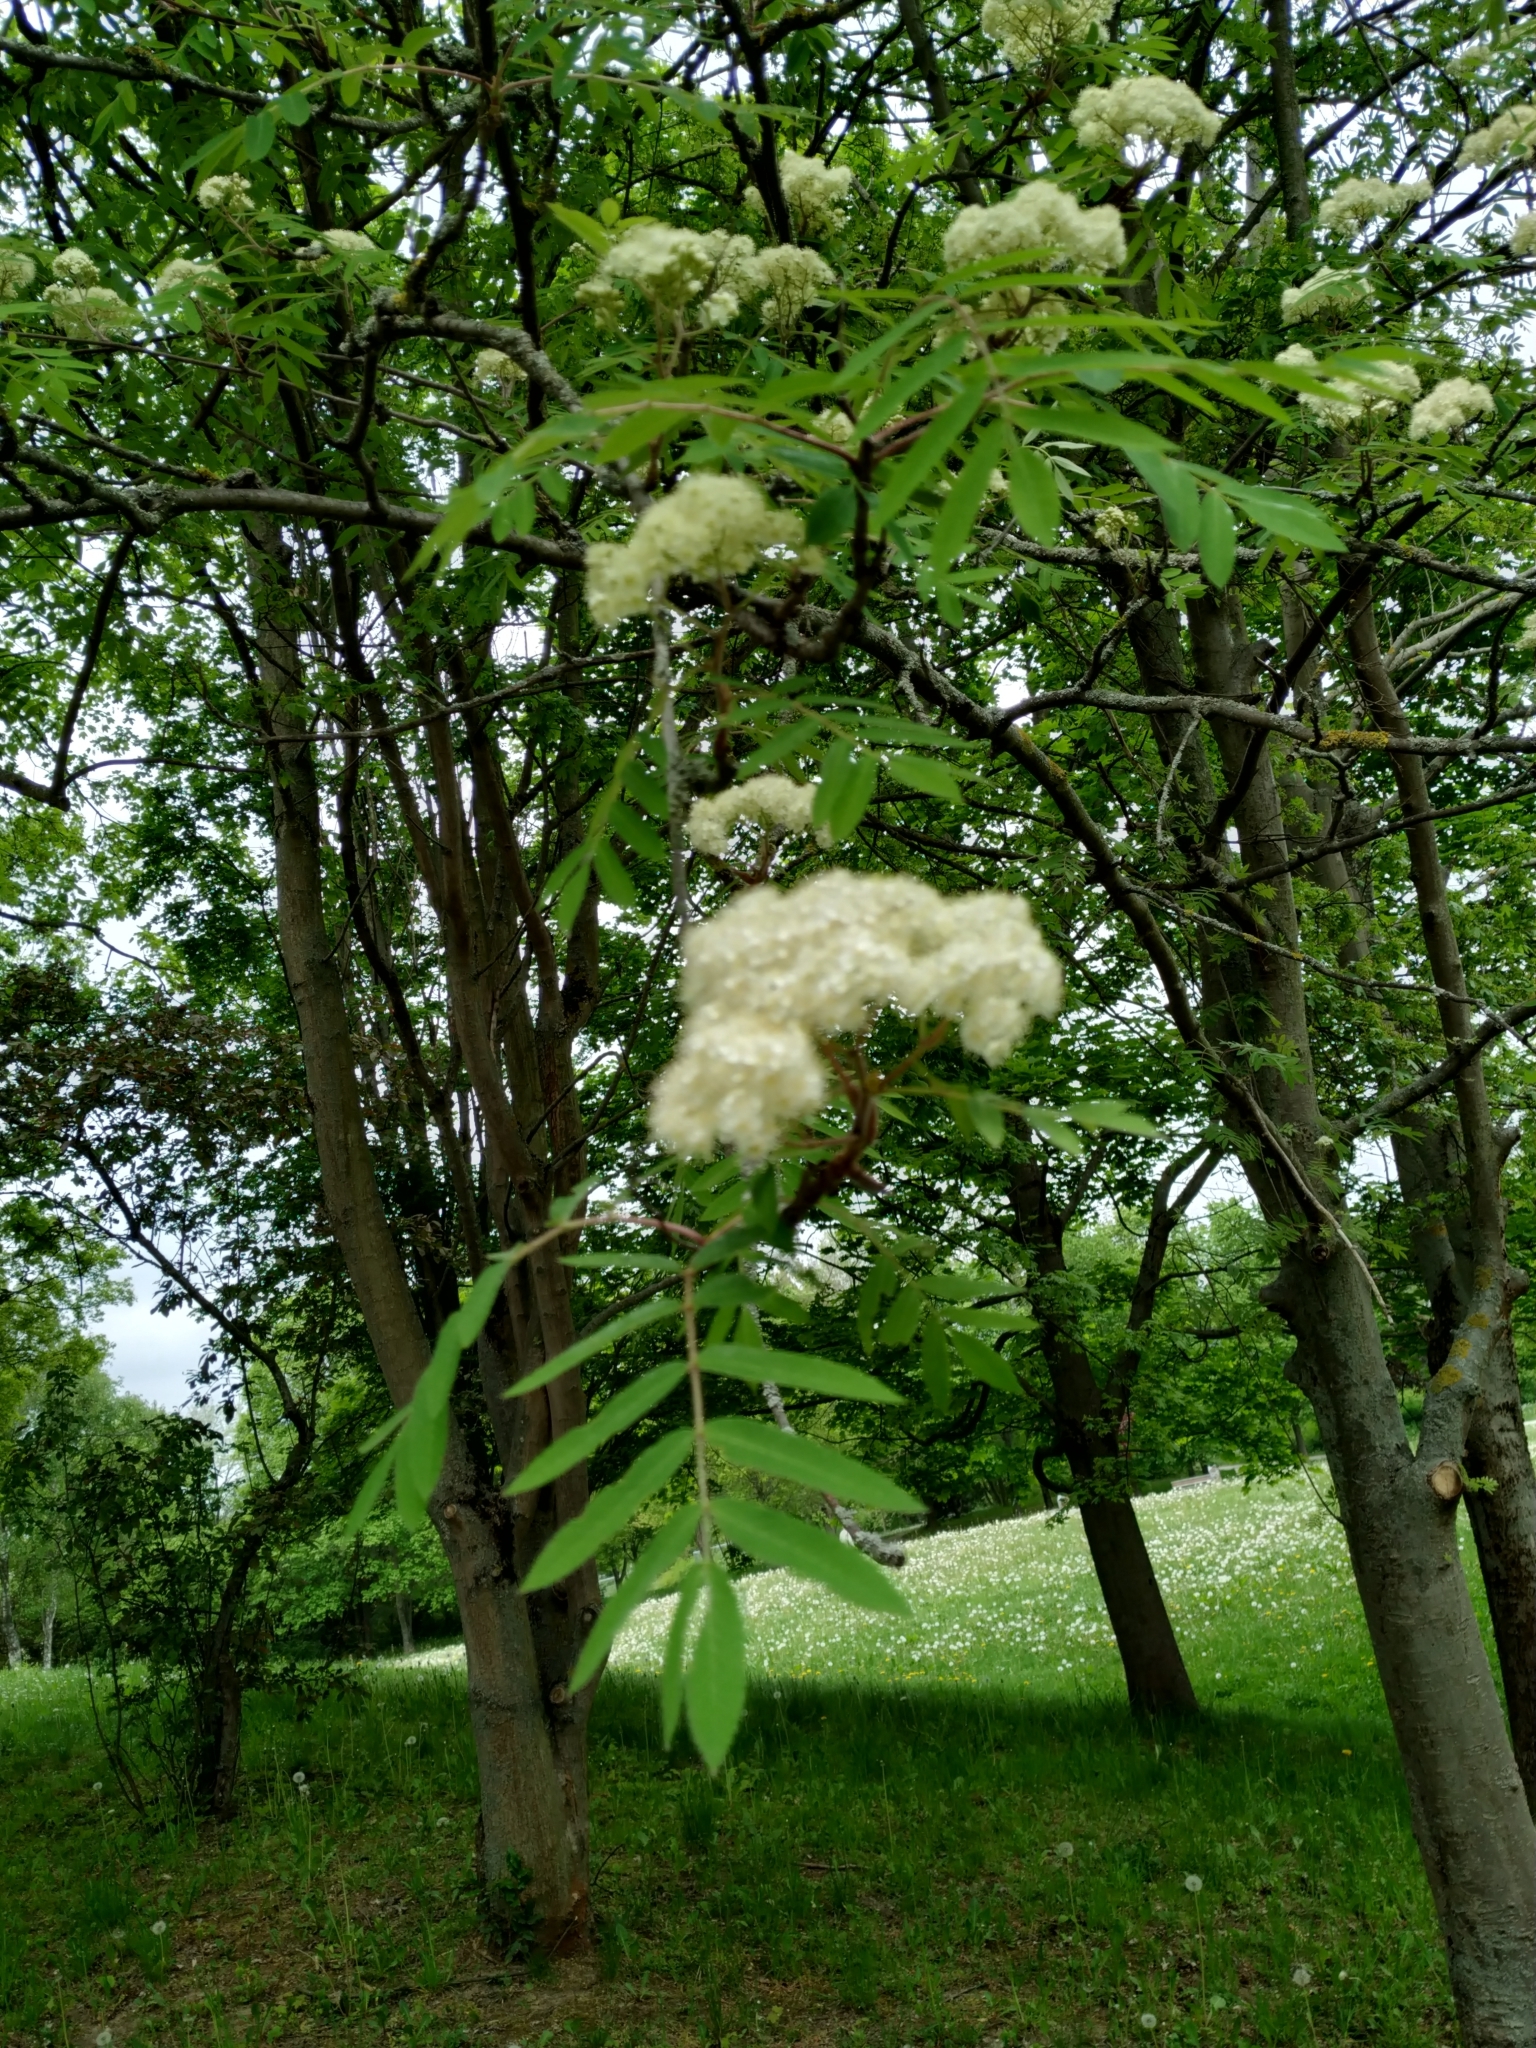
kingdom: Plantae
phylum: Tracheophyta
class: Magnoliopsida
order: Rosales
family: Rosaceae
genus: Sorbus
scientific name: Sorbus aucuparia
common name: Rowan
